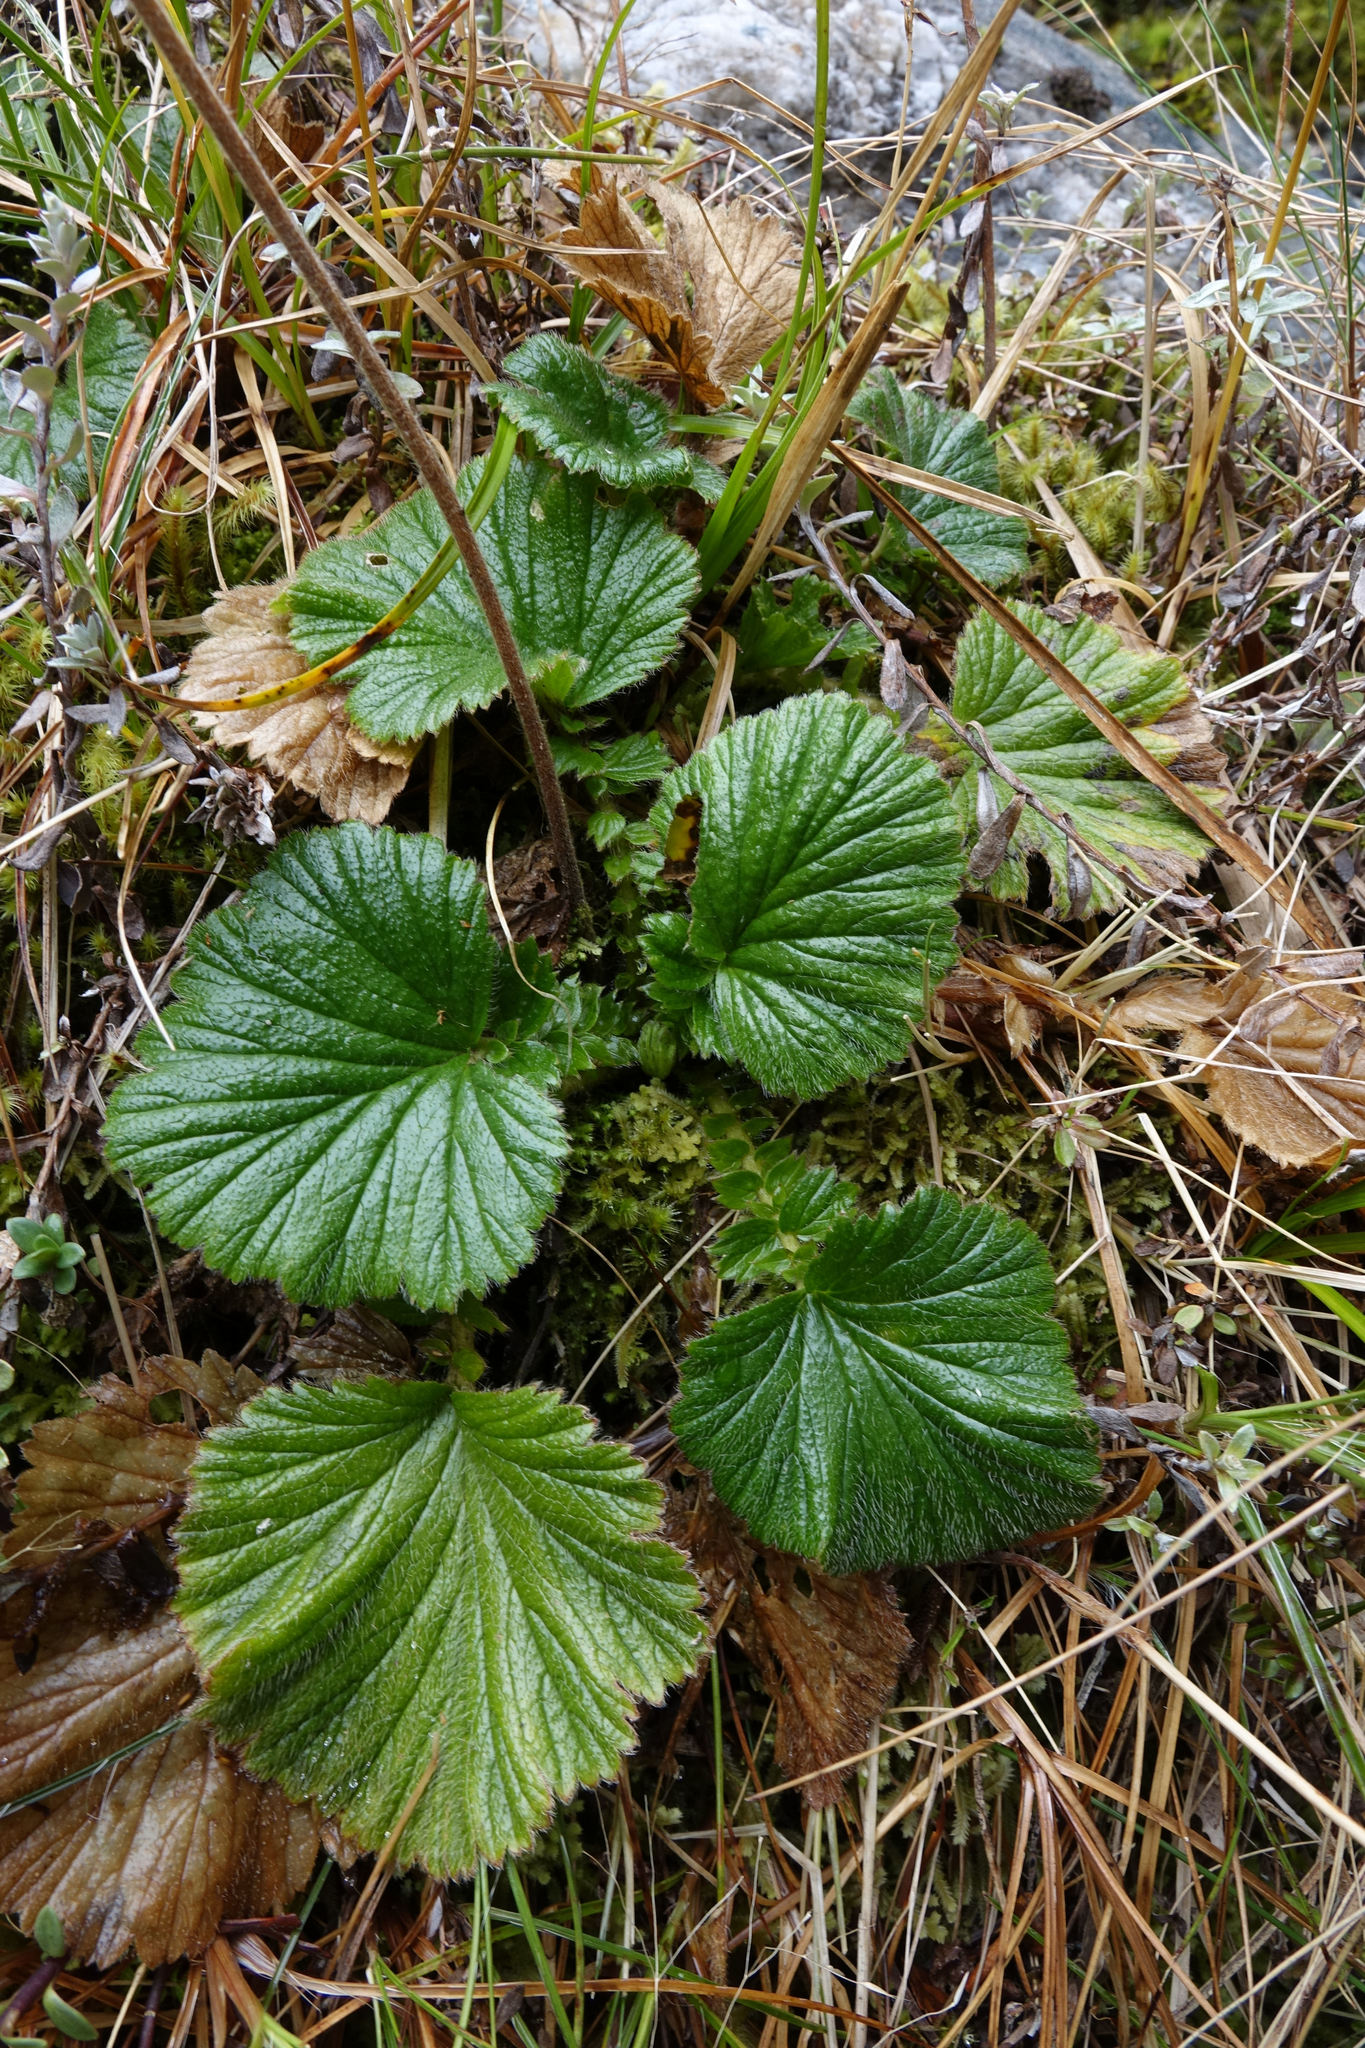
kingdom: Plantae
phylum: Tracheophyta
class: Magnoliopsida
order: Rosales
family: Rosaceae
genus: Geum
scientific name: Geum cockaynei
